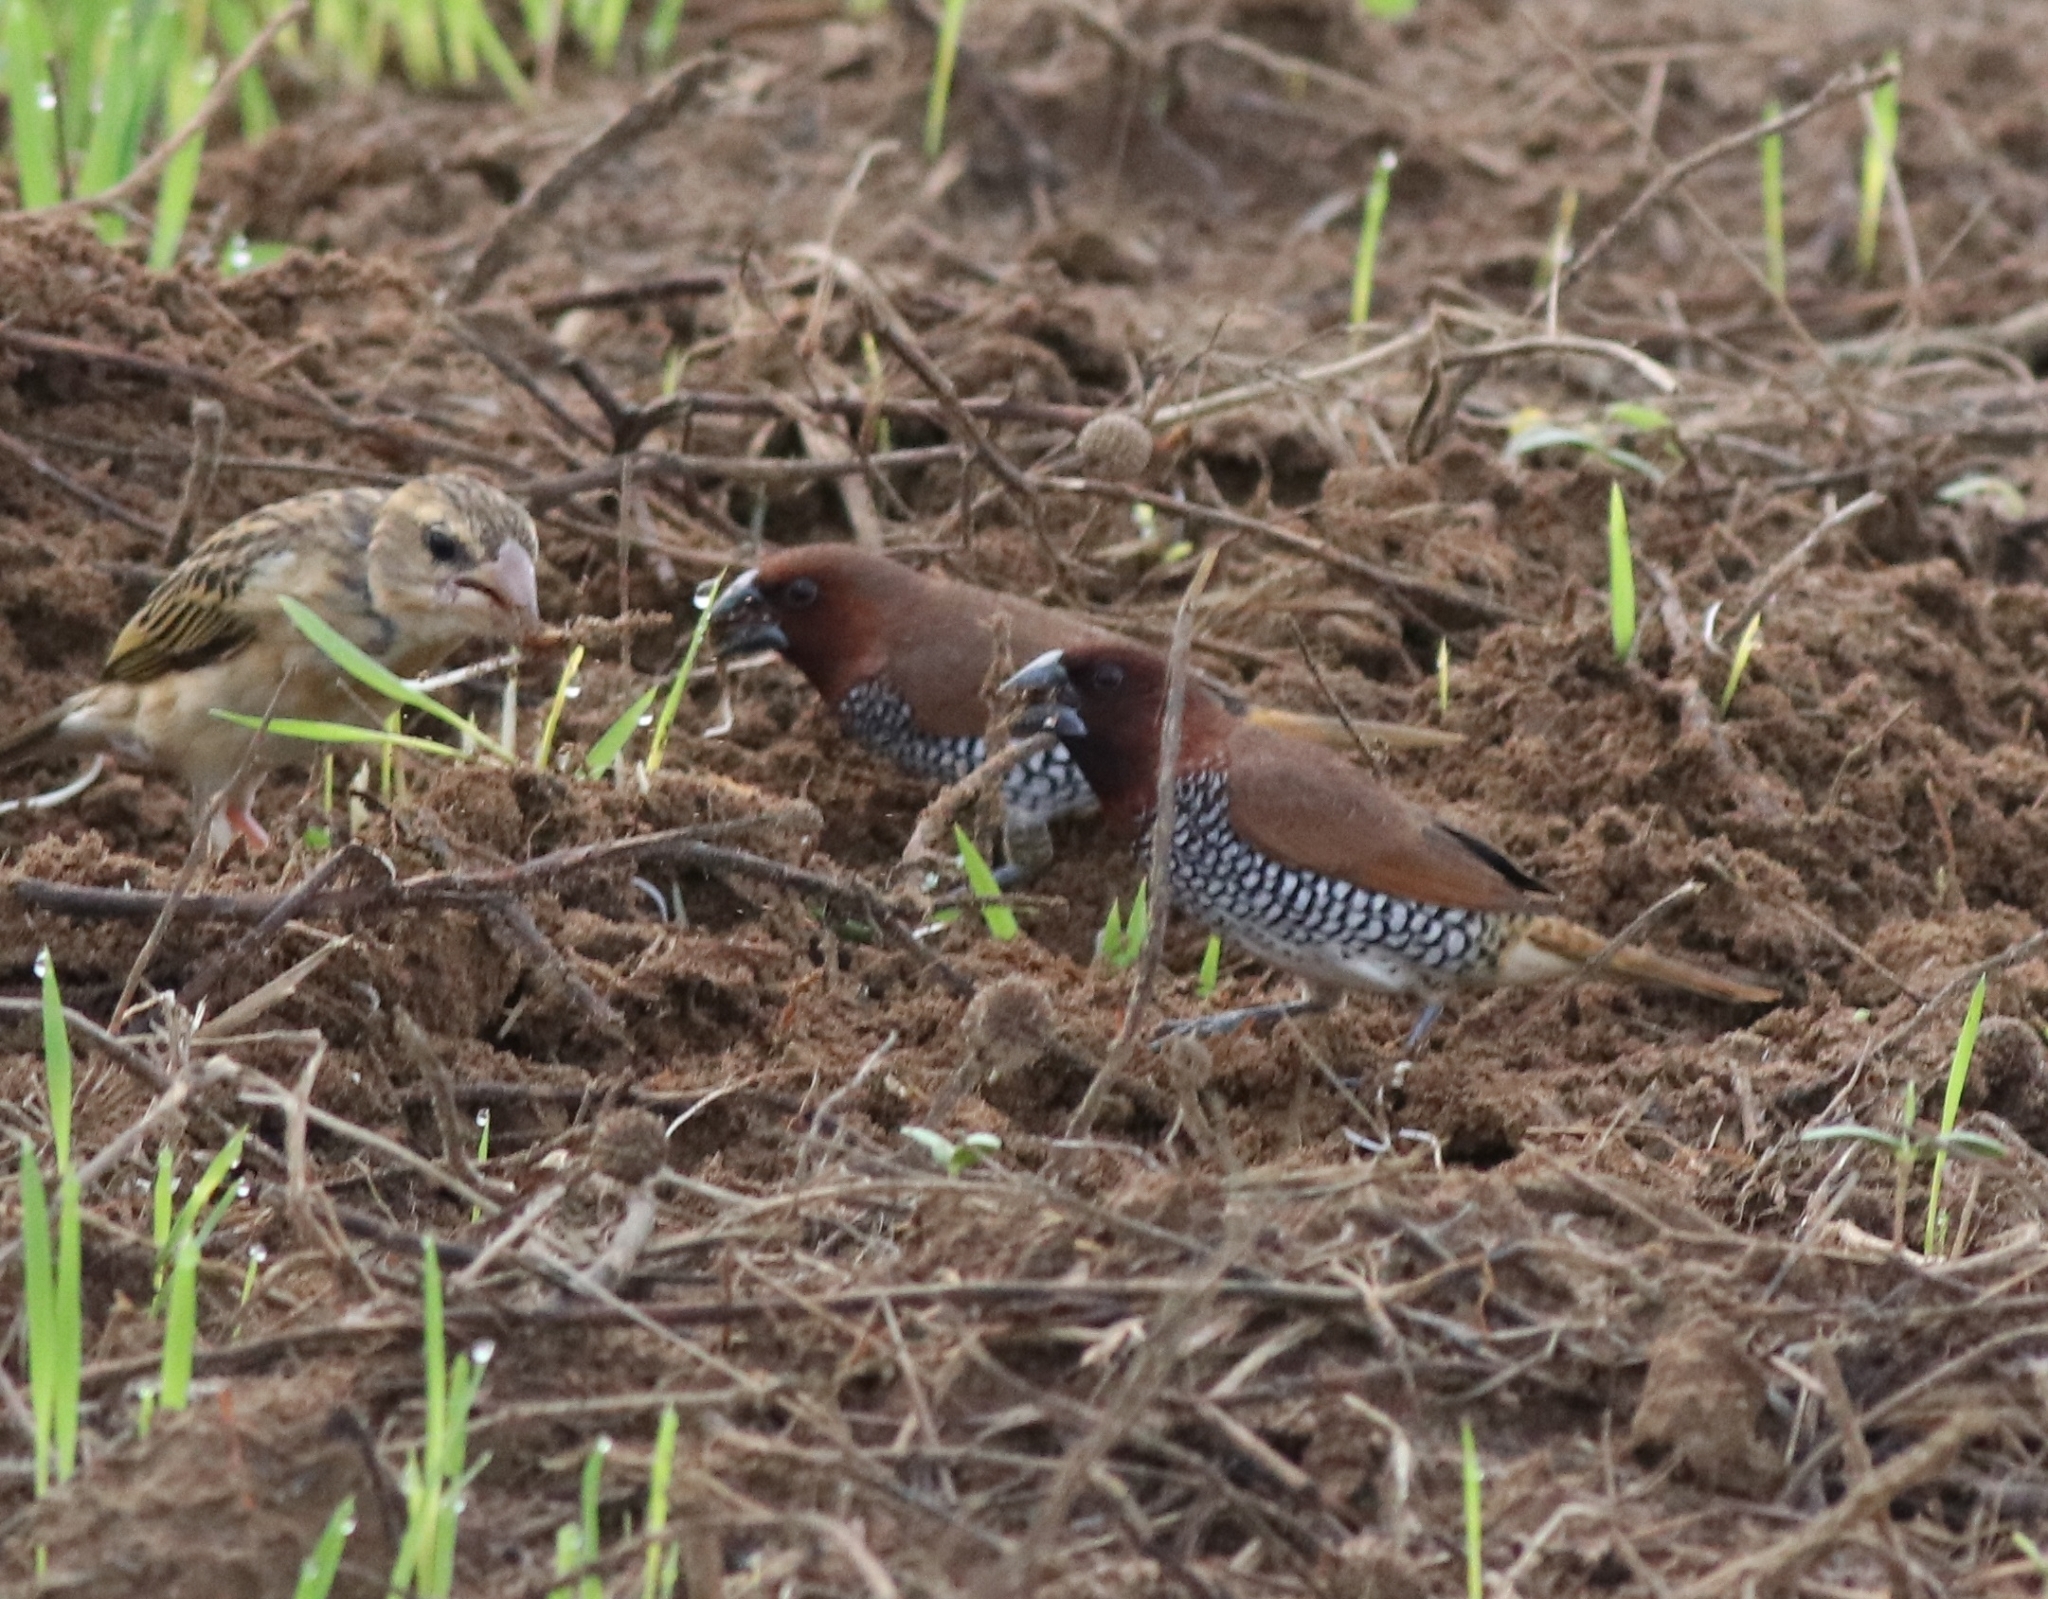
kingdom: Animalia
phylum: Chordata
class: Aves
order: Passeriformes
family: Estrildidae
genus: Lonchura
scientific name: Lonchura punctulata
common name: Scaly-breasted munia
